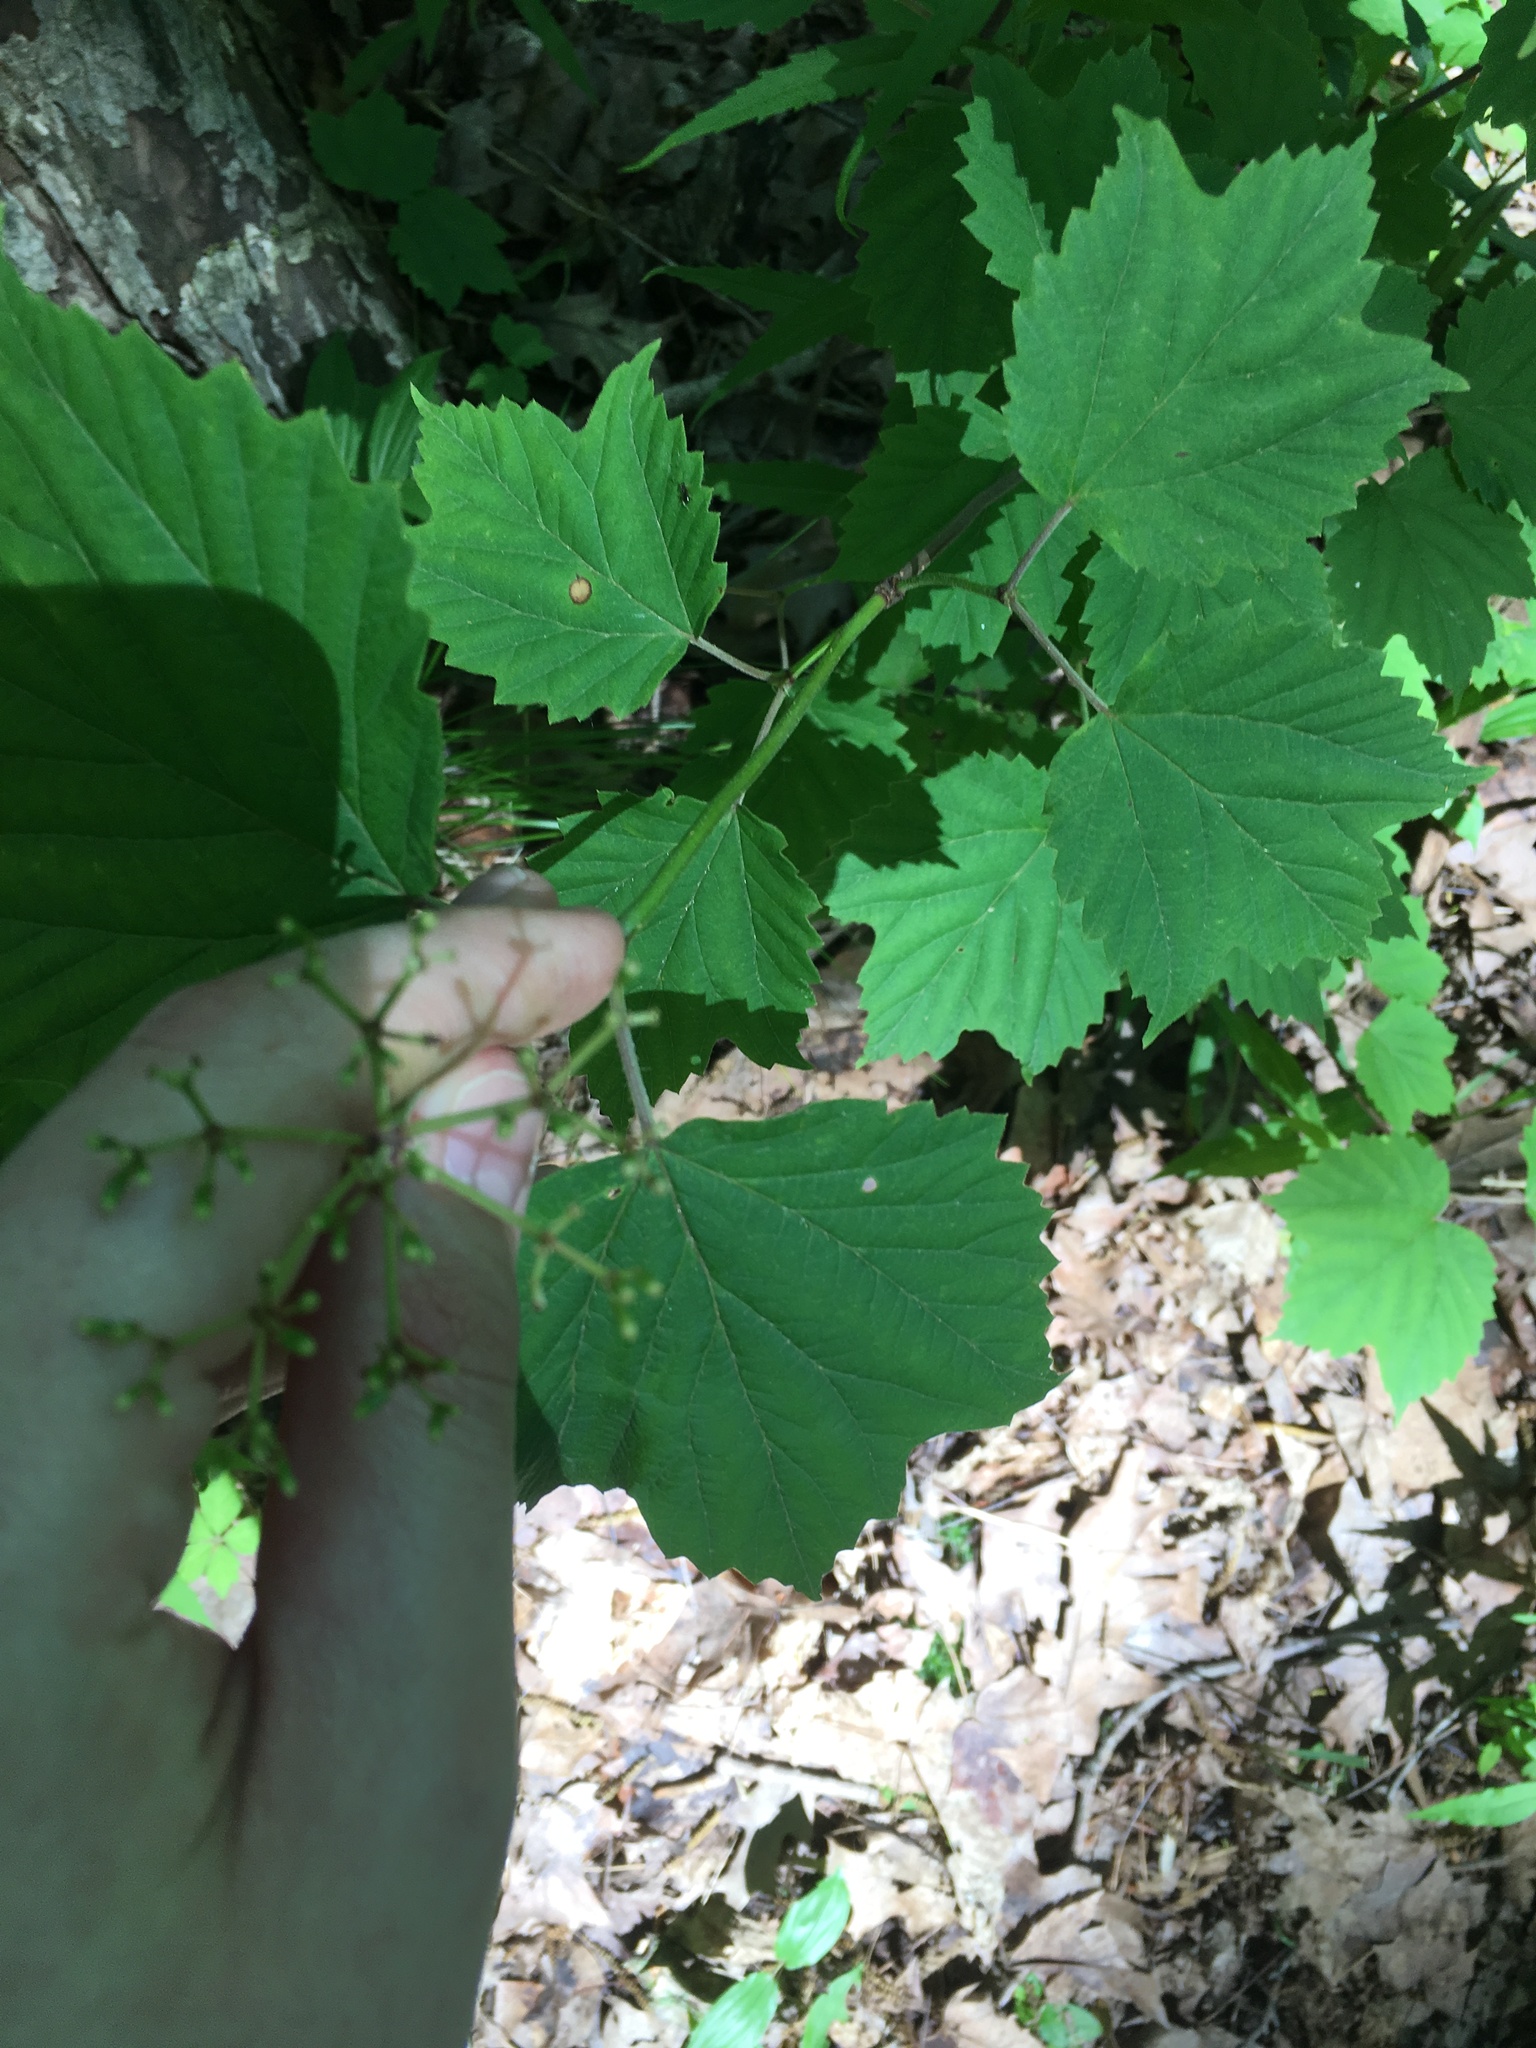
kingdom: Plantae
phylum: Tracheophyta
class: Magnoliopsida
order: Dipsacales
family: Viburnaceae
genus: Viburnum
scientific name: Viburnum acerifolium
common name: Dockmackie
